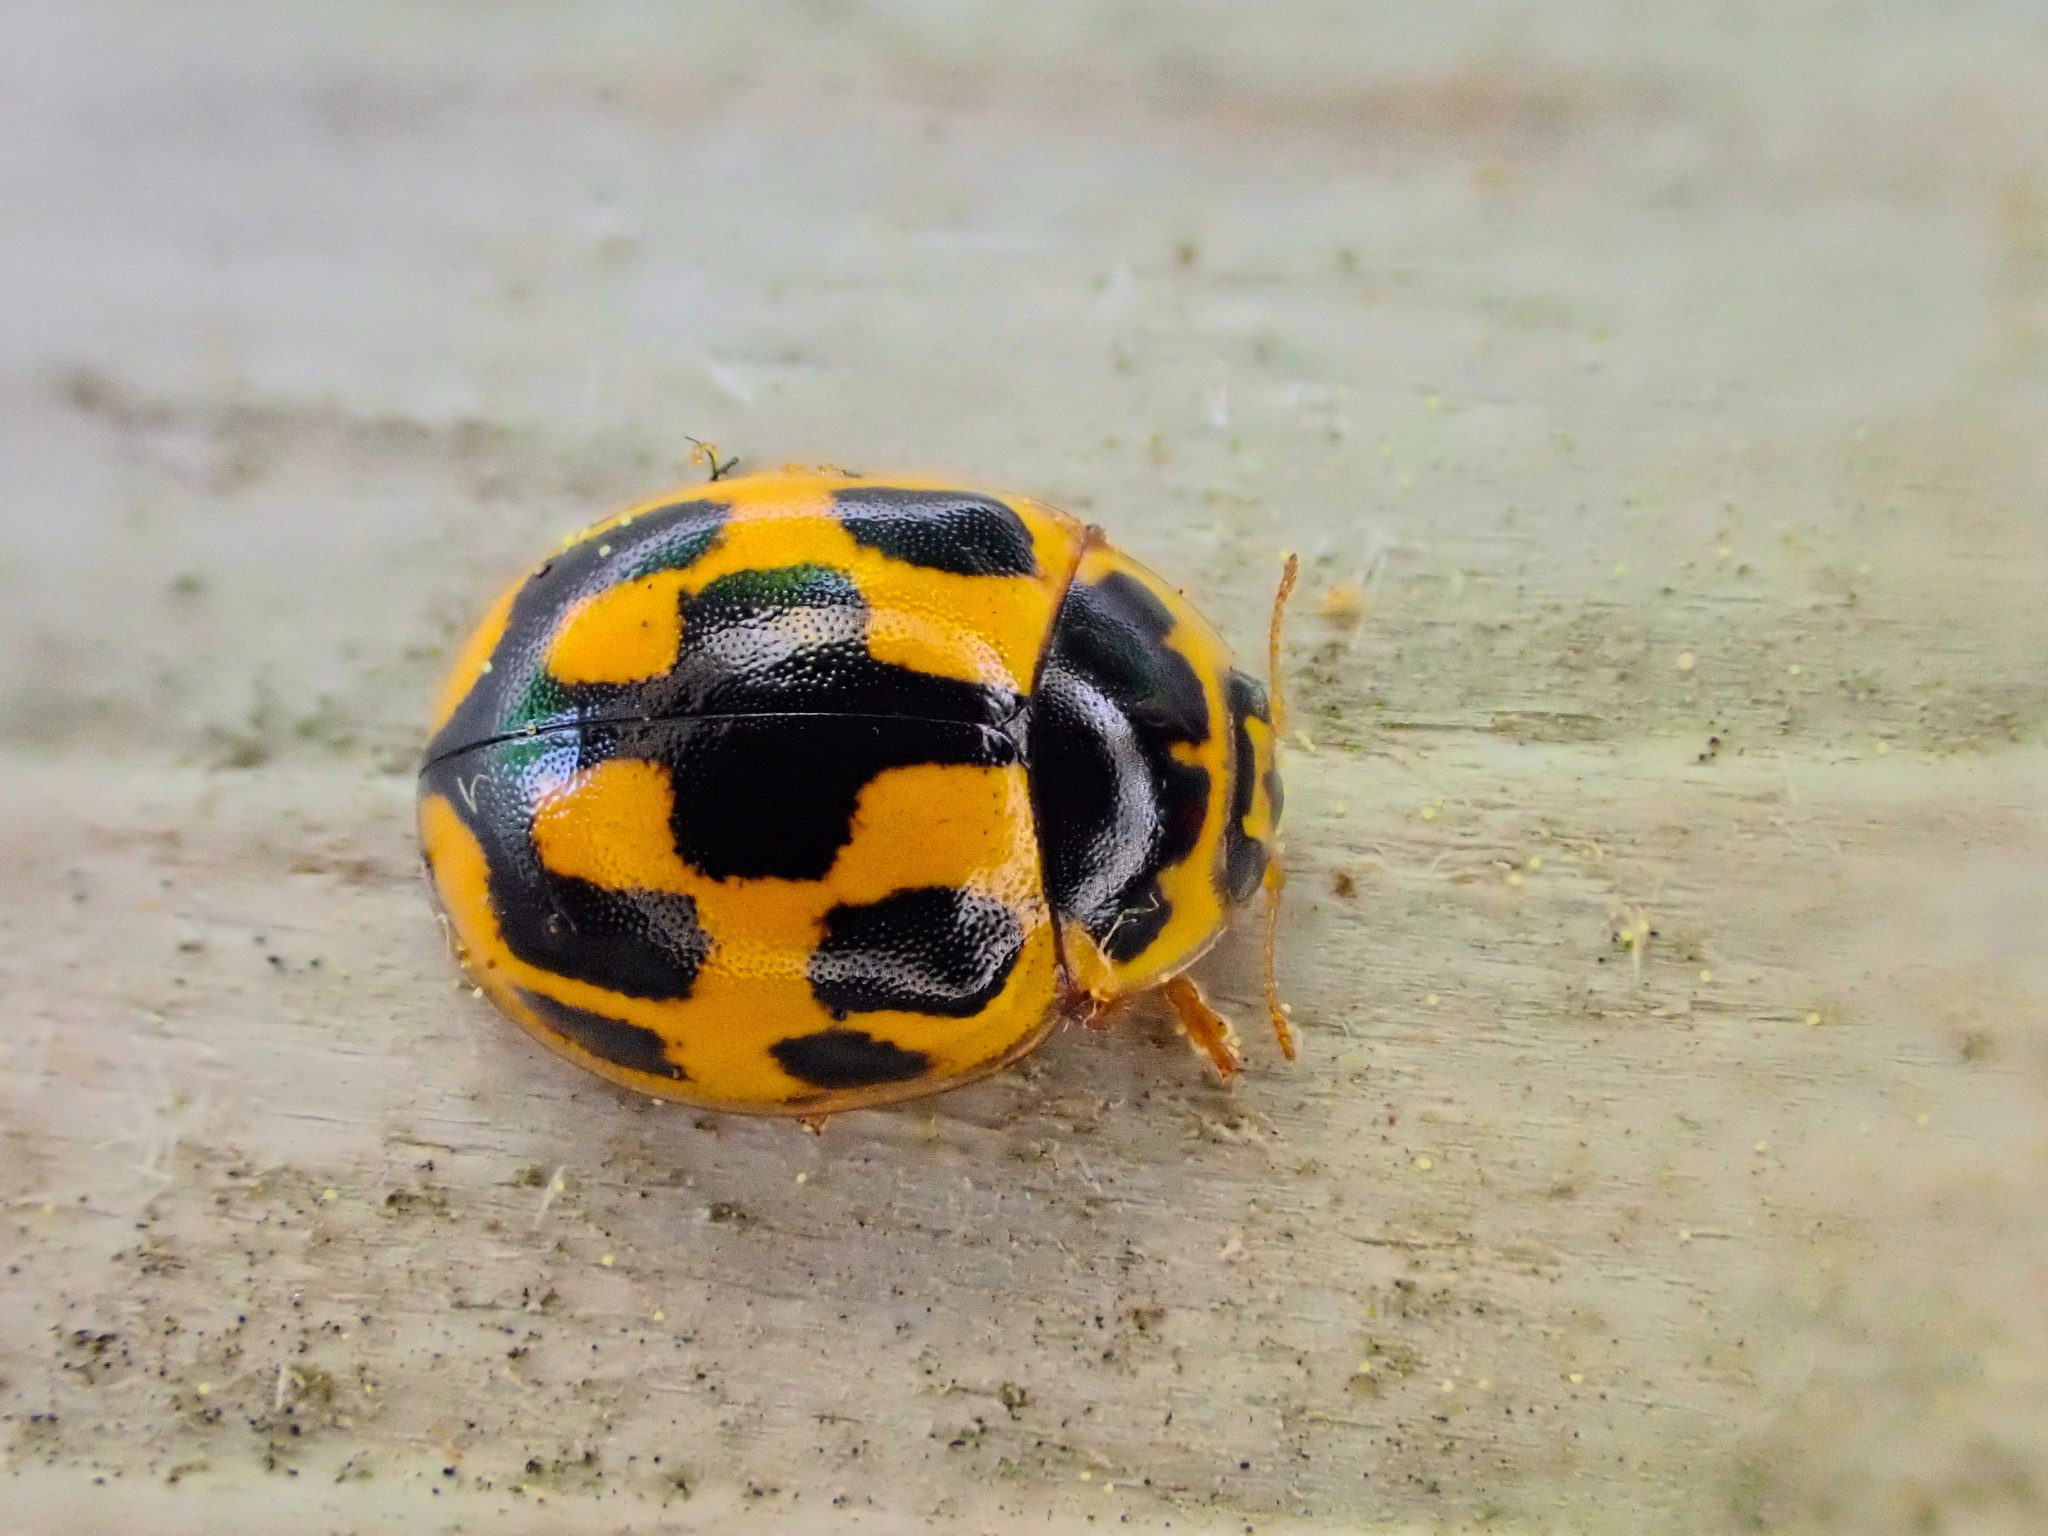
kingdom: Animalia
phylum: Arthropoda
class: Insecta
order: Coleoptera
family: Coccinellidae
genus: Propylaea
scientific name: Propylaea quatuordecimpunctata
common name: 14-spotted ladybird beetle
